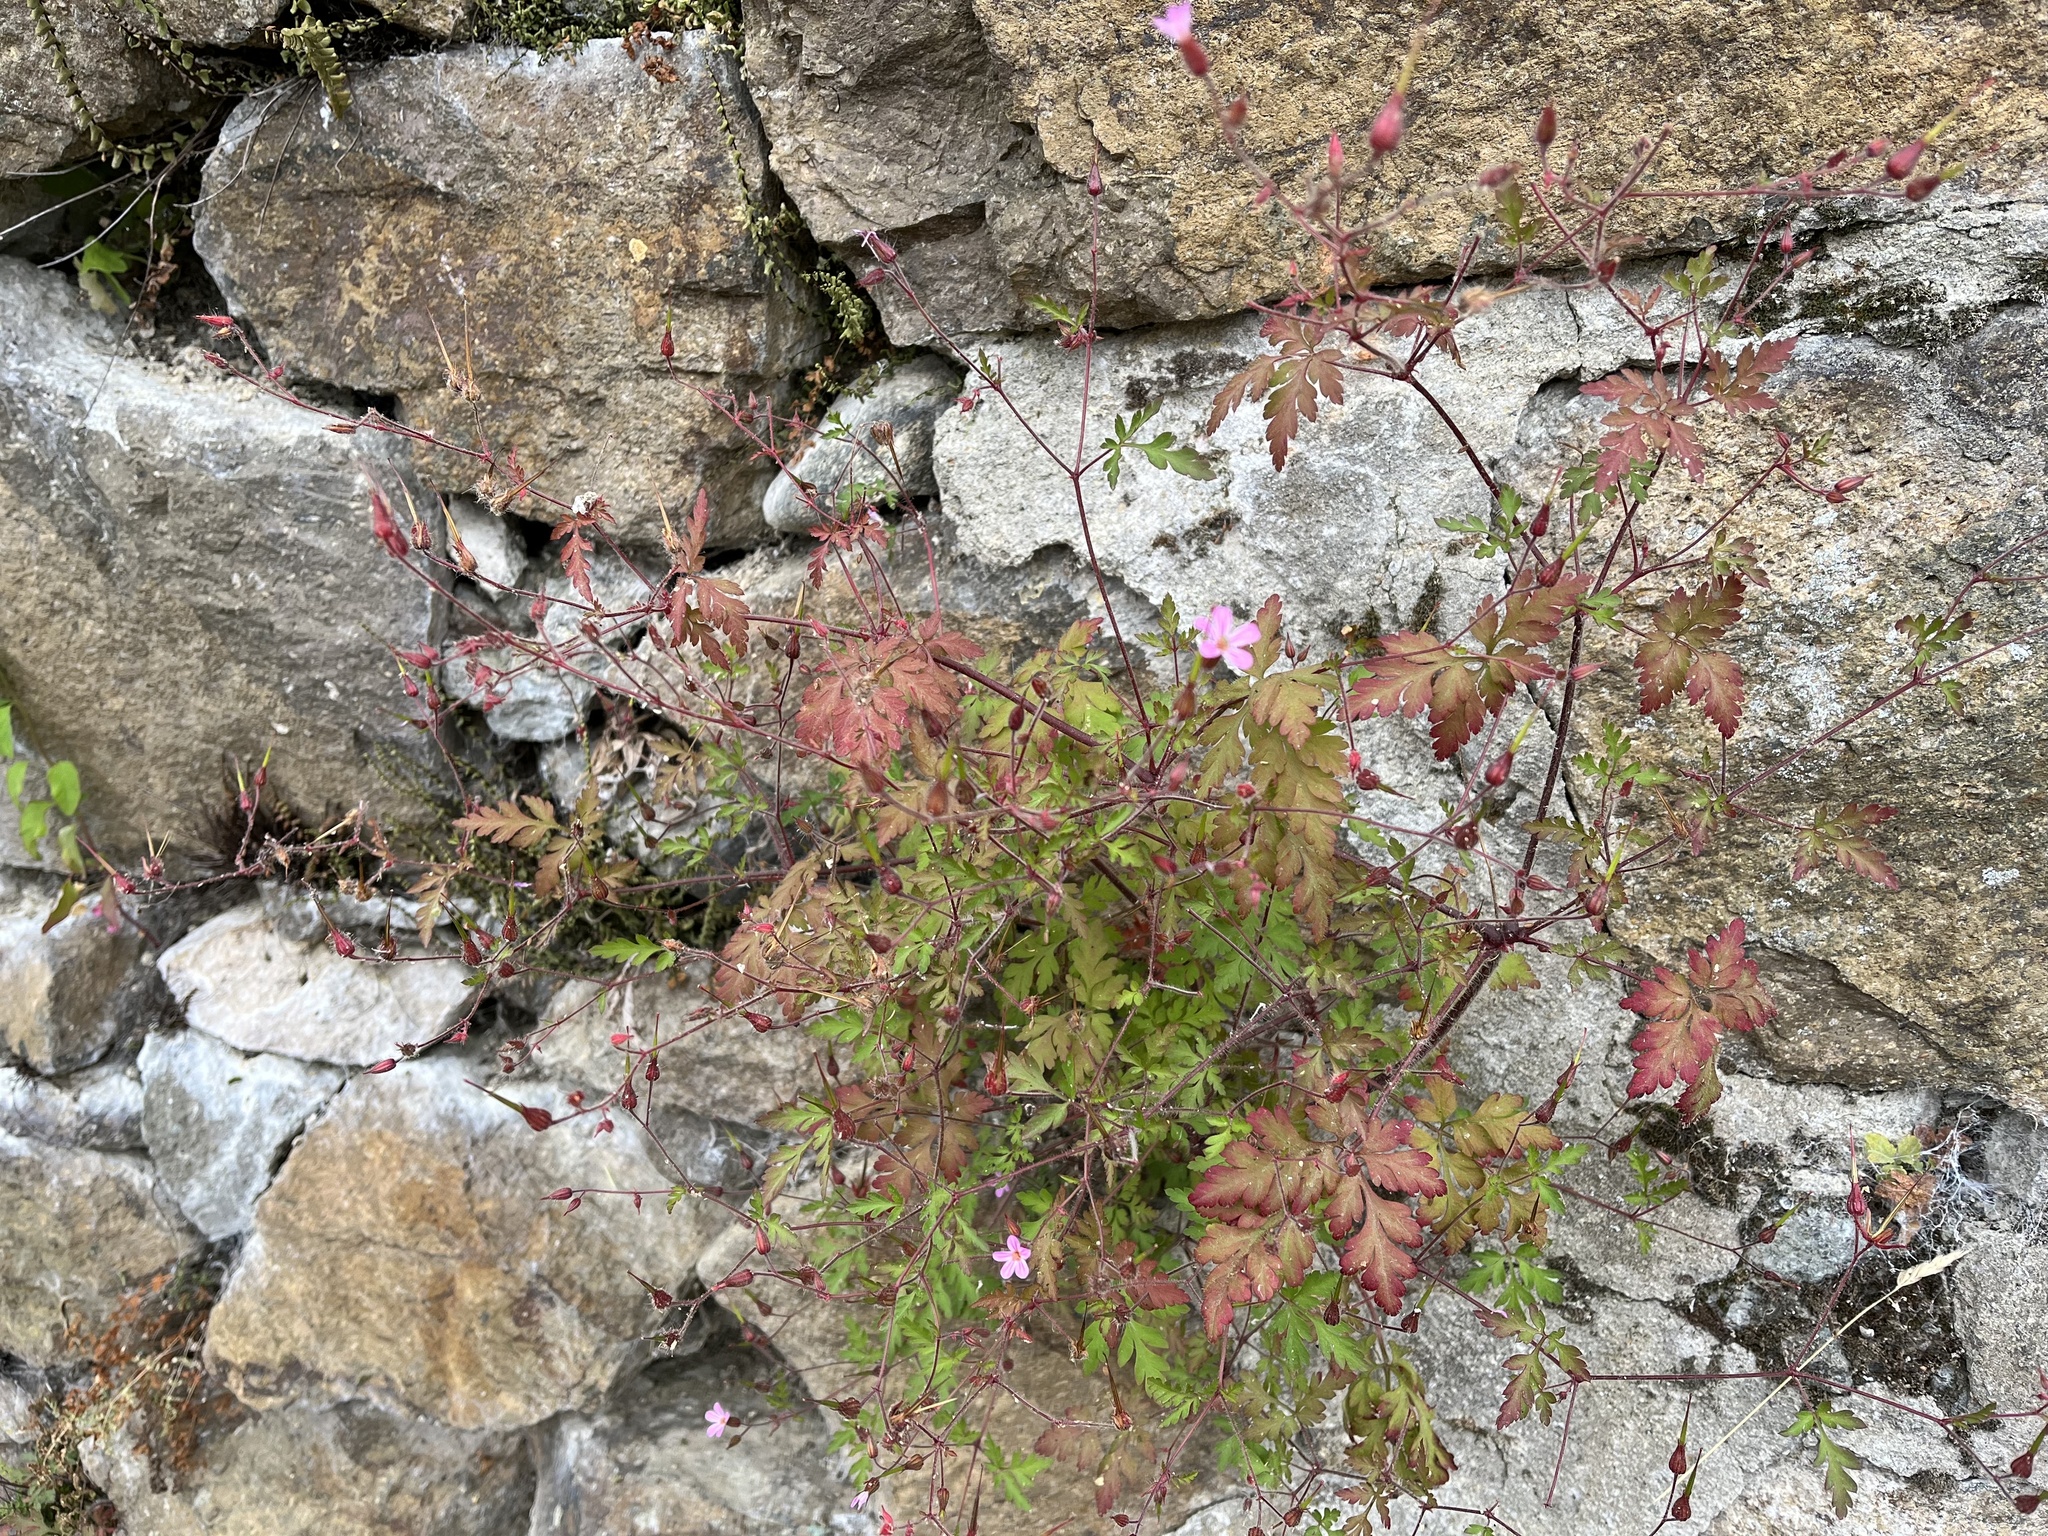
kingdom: Plantae
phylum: Tracheophyta
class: Magnoliopsida
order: Geraniales
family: Geraniaceae
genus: Geranium
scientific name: Geranium robertianum
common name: Herb-robert
